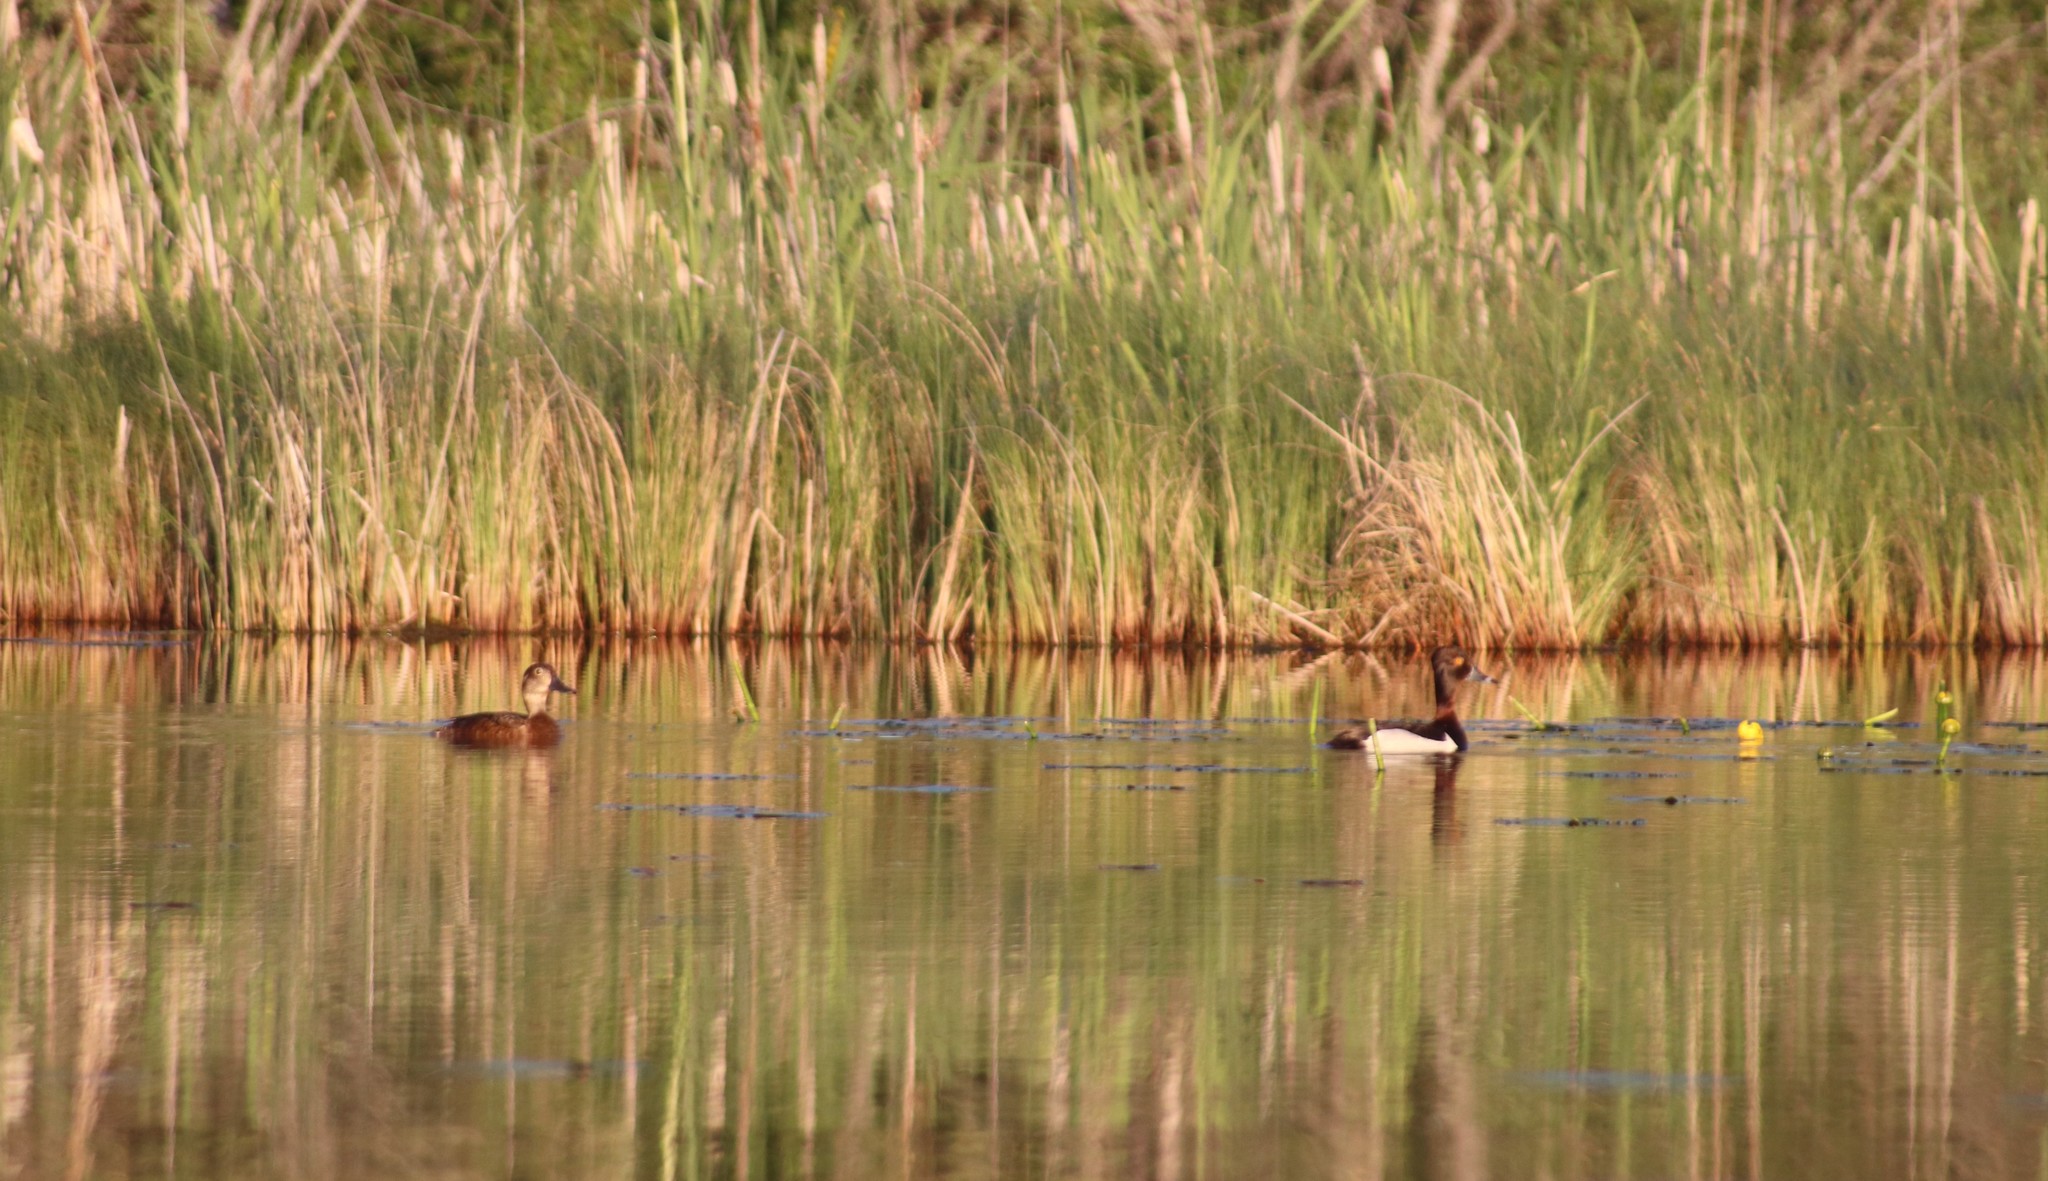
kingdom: Animalia
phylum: Chordata
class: Aves
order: Anseriformes
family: Anatidae
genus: Aythya
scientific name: Aythya collaris
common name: Ring-necked duck
